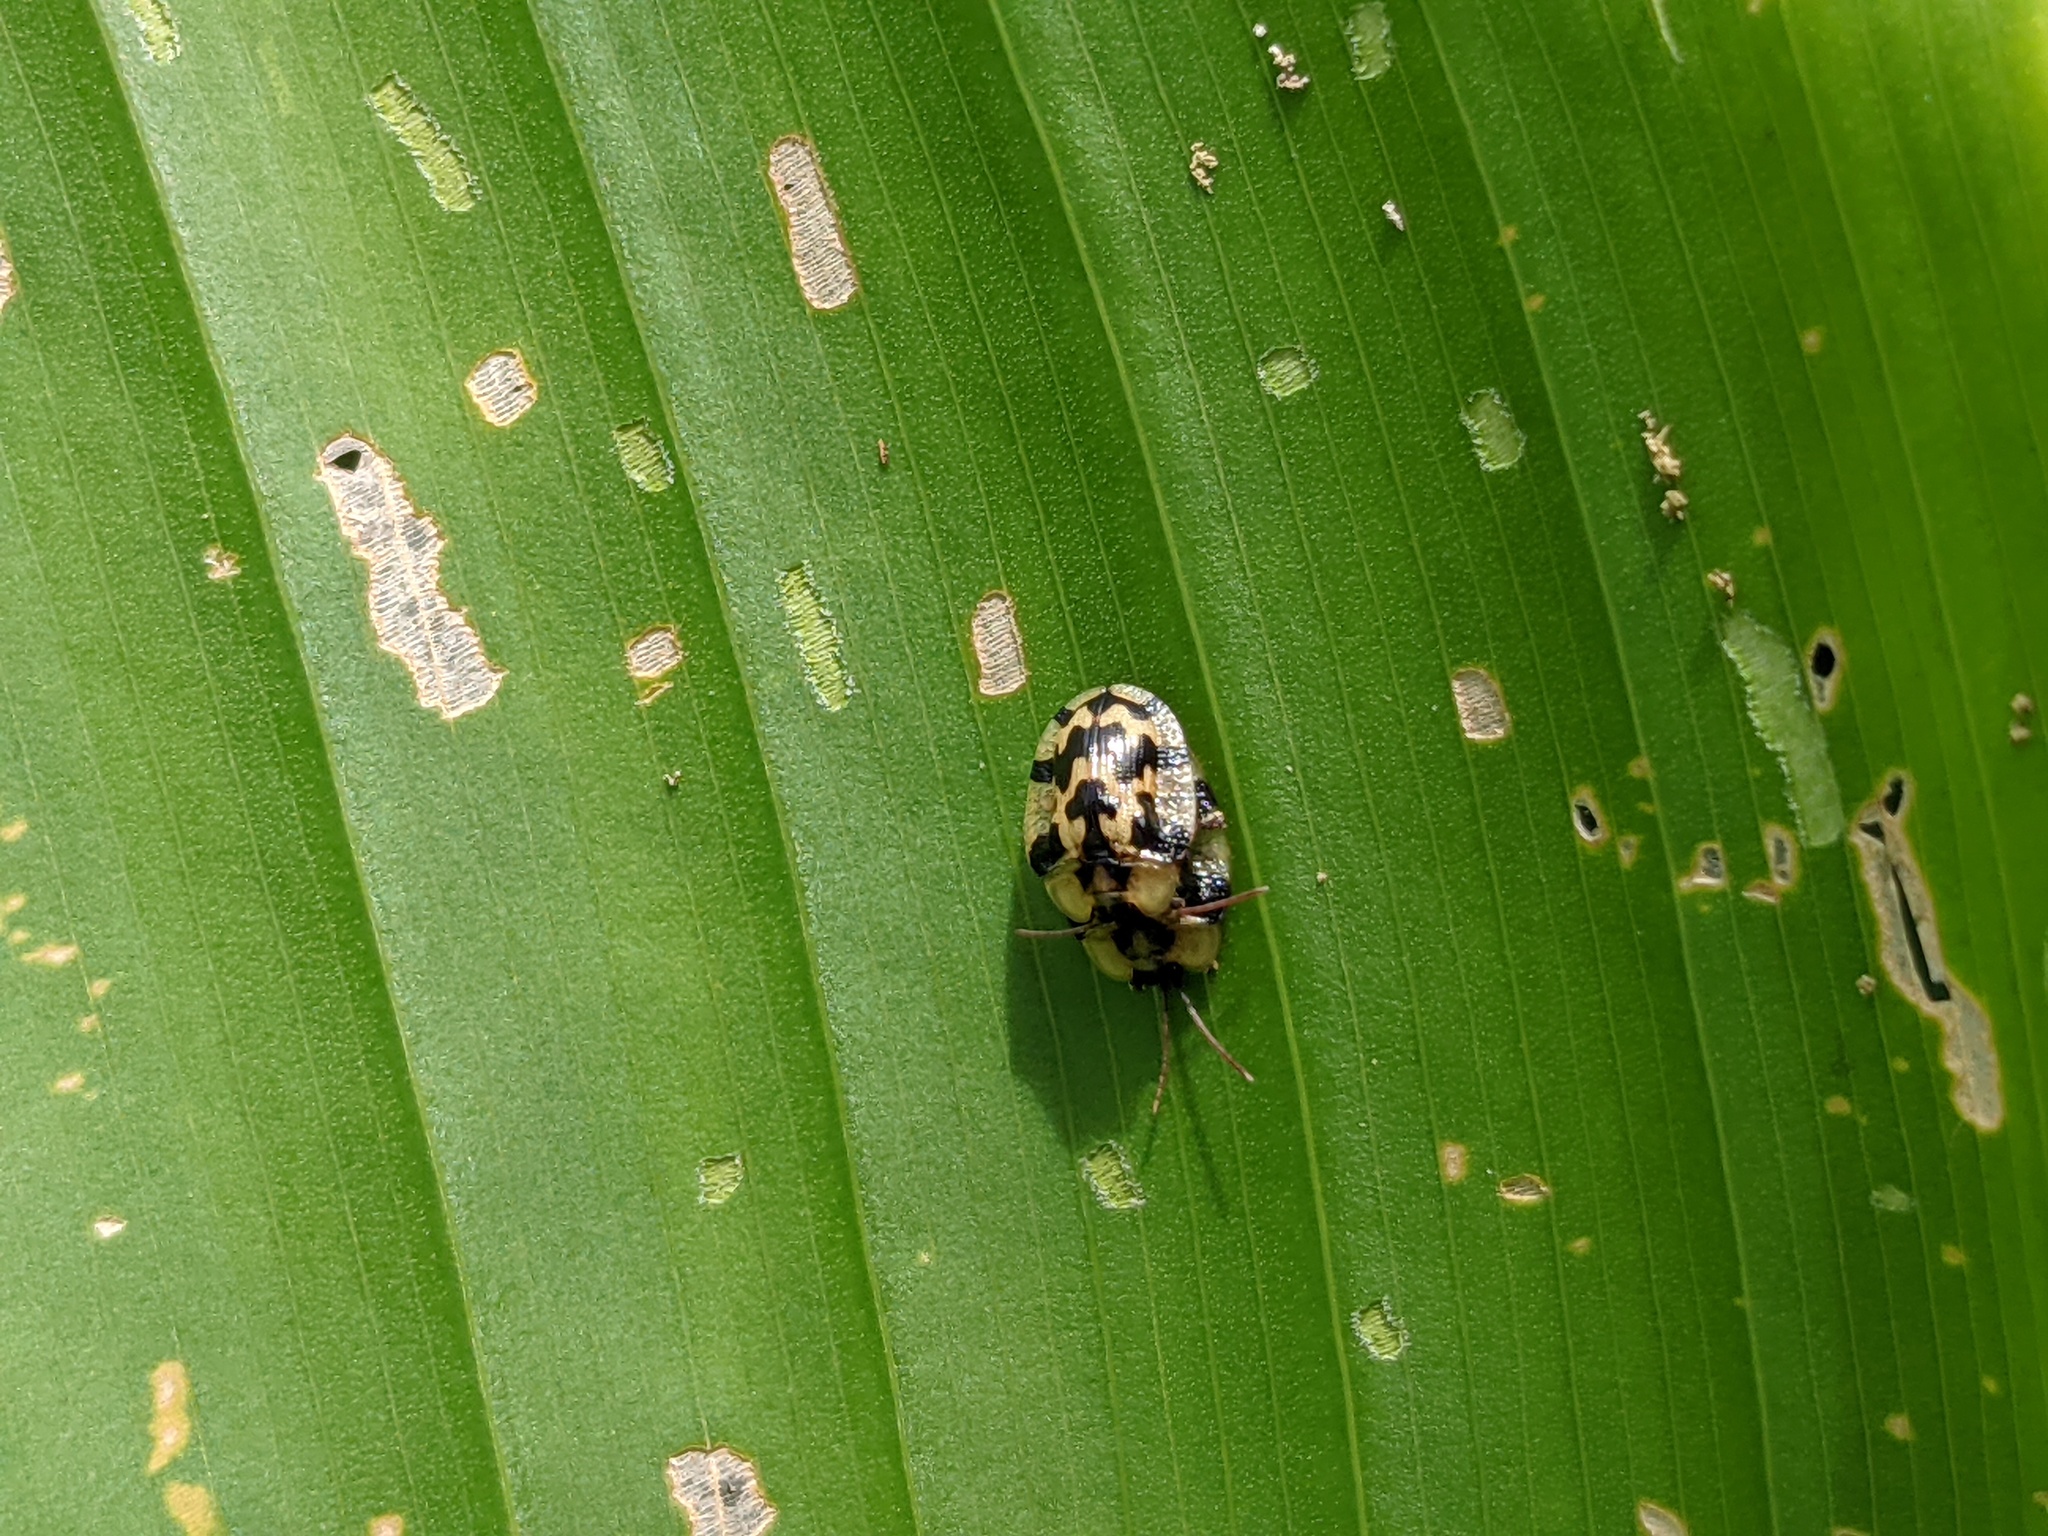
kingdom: Animalia
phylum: Arthropoda
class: Insecta
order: Coleoptera
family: Chrysomelidae
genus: Aslamidium
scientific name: Aslamidium capense
